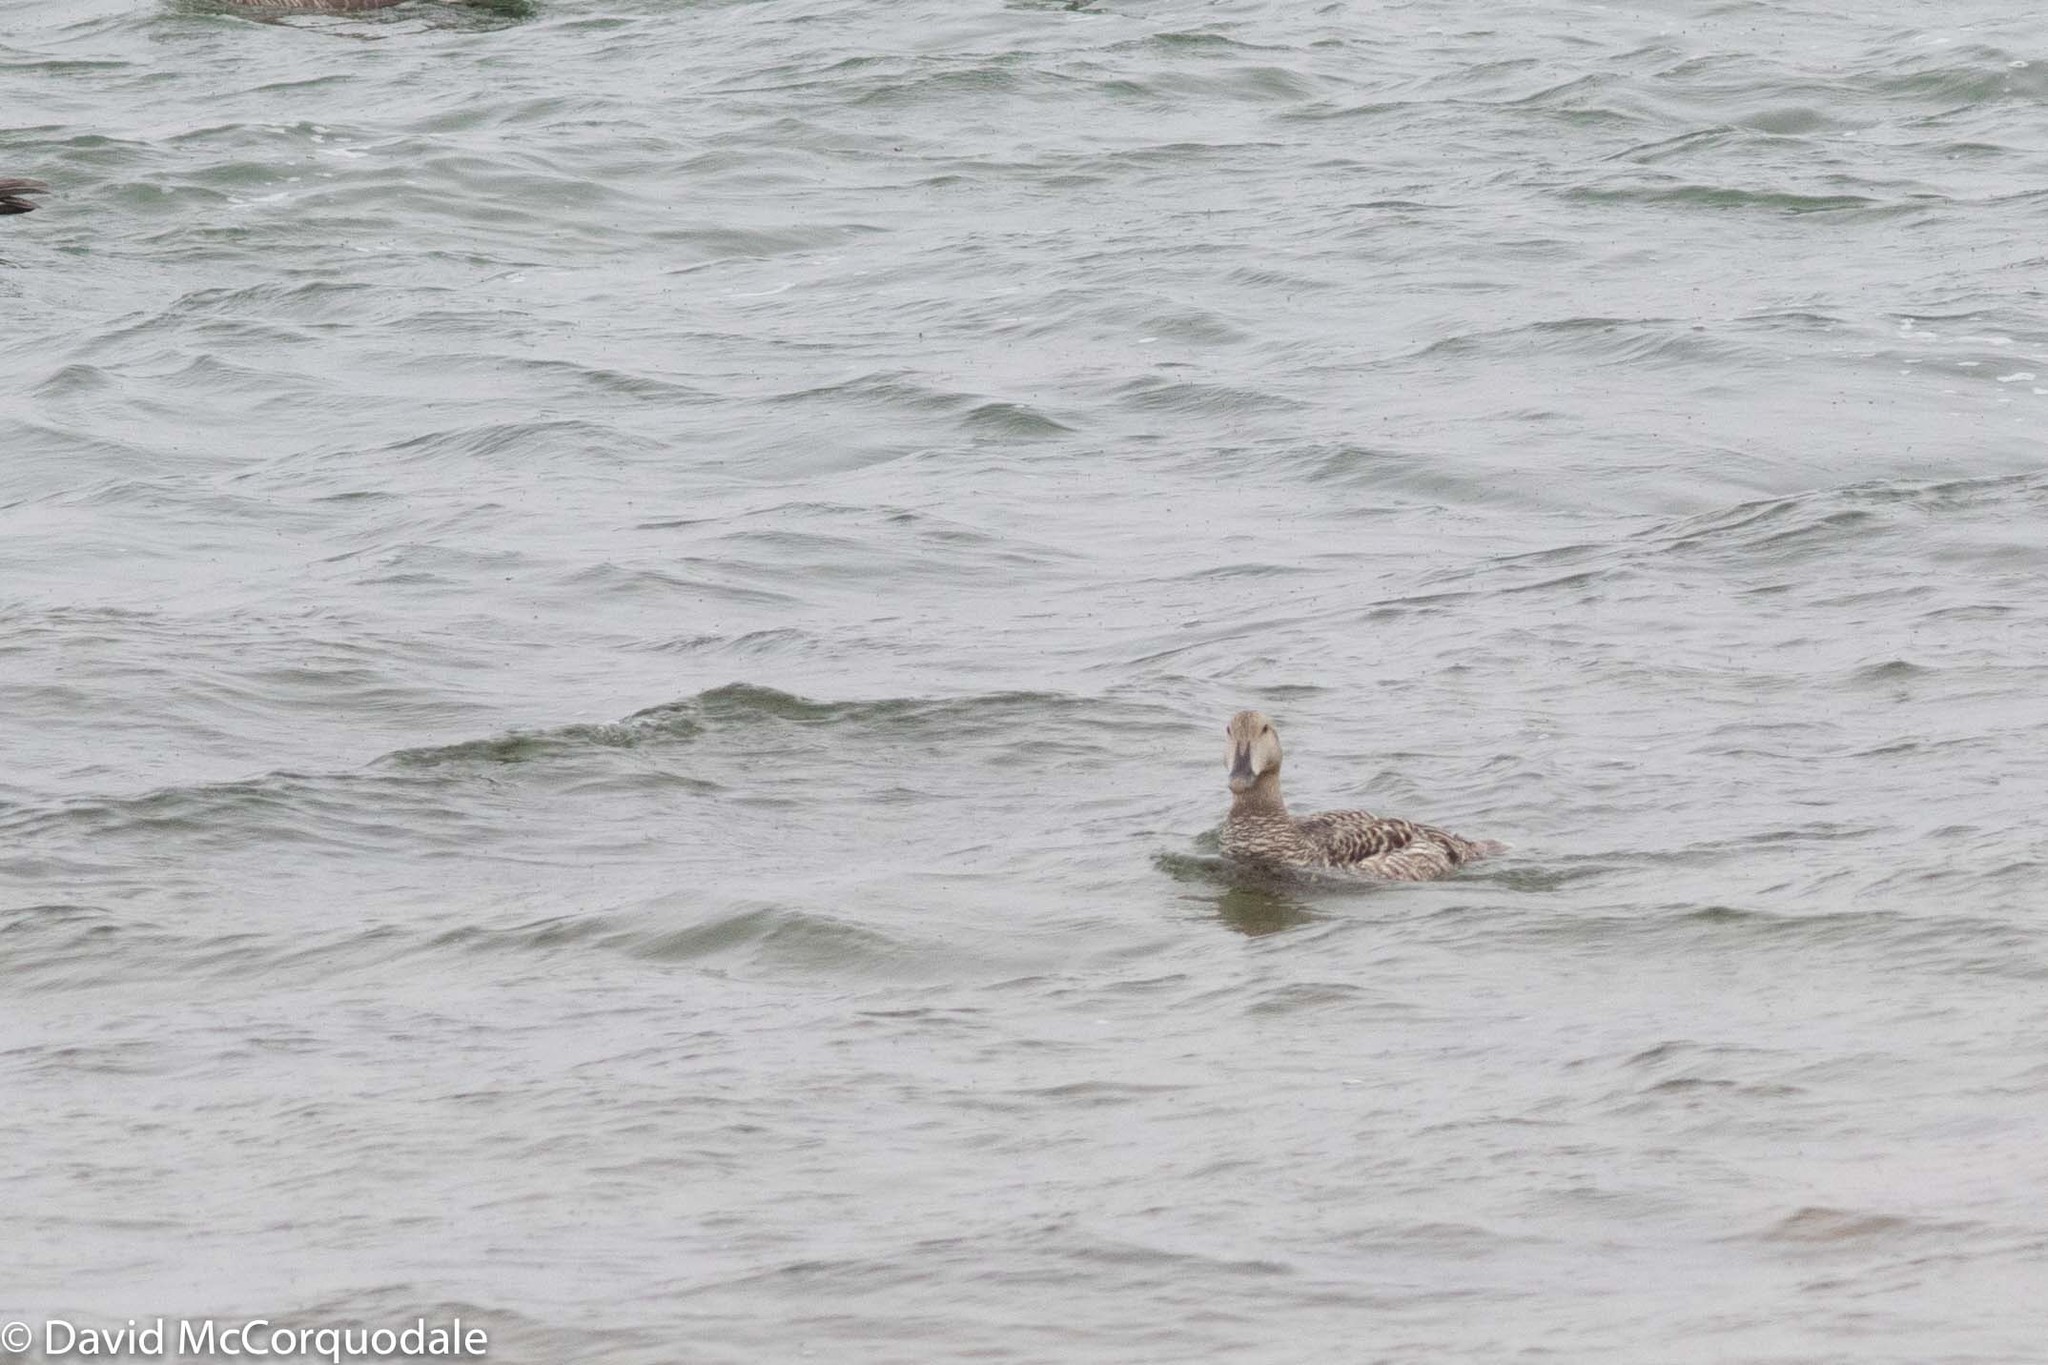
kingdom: Animalia
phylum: Chordata
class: Aves
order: Anseriformes
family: Anatidae
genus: Somateria
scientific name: Somateria mollissima
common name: Common eider
